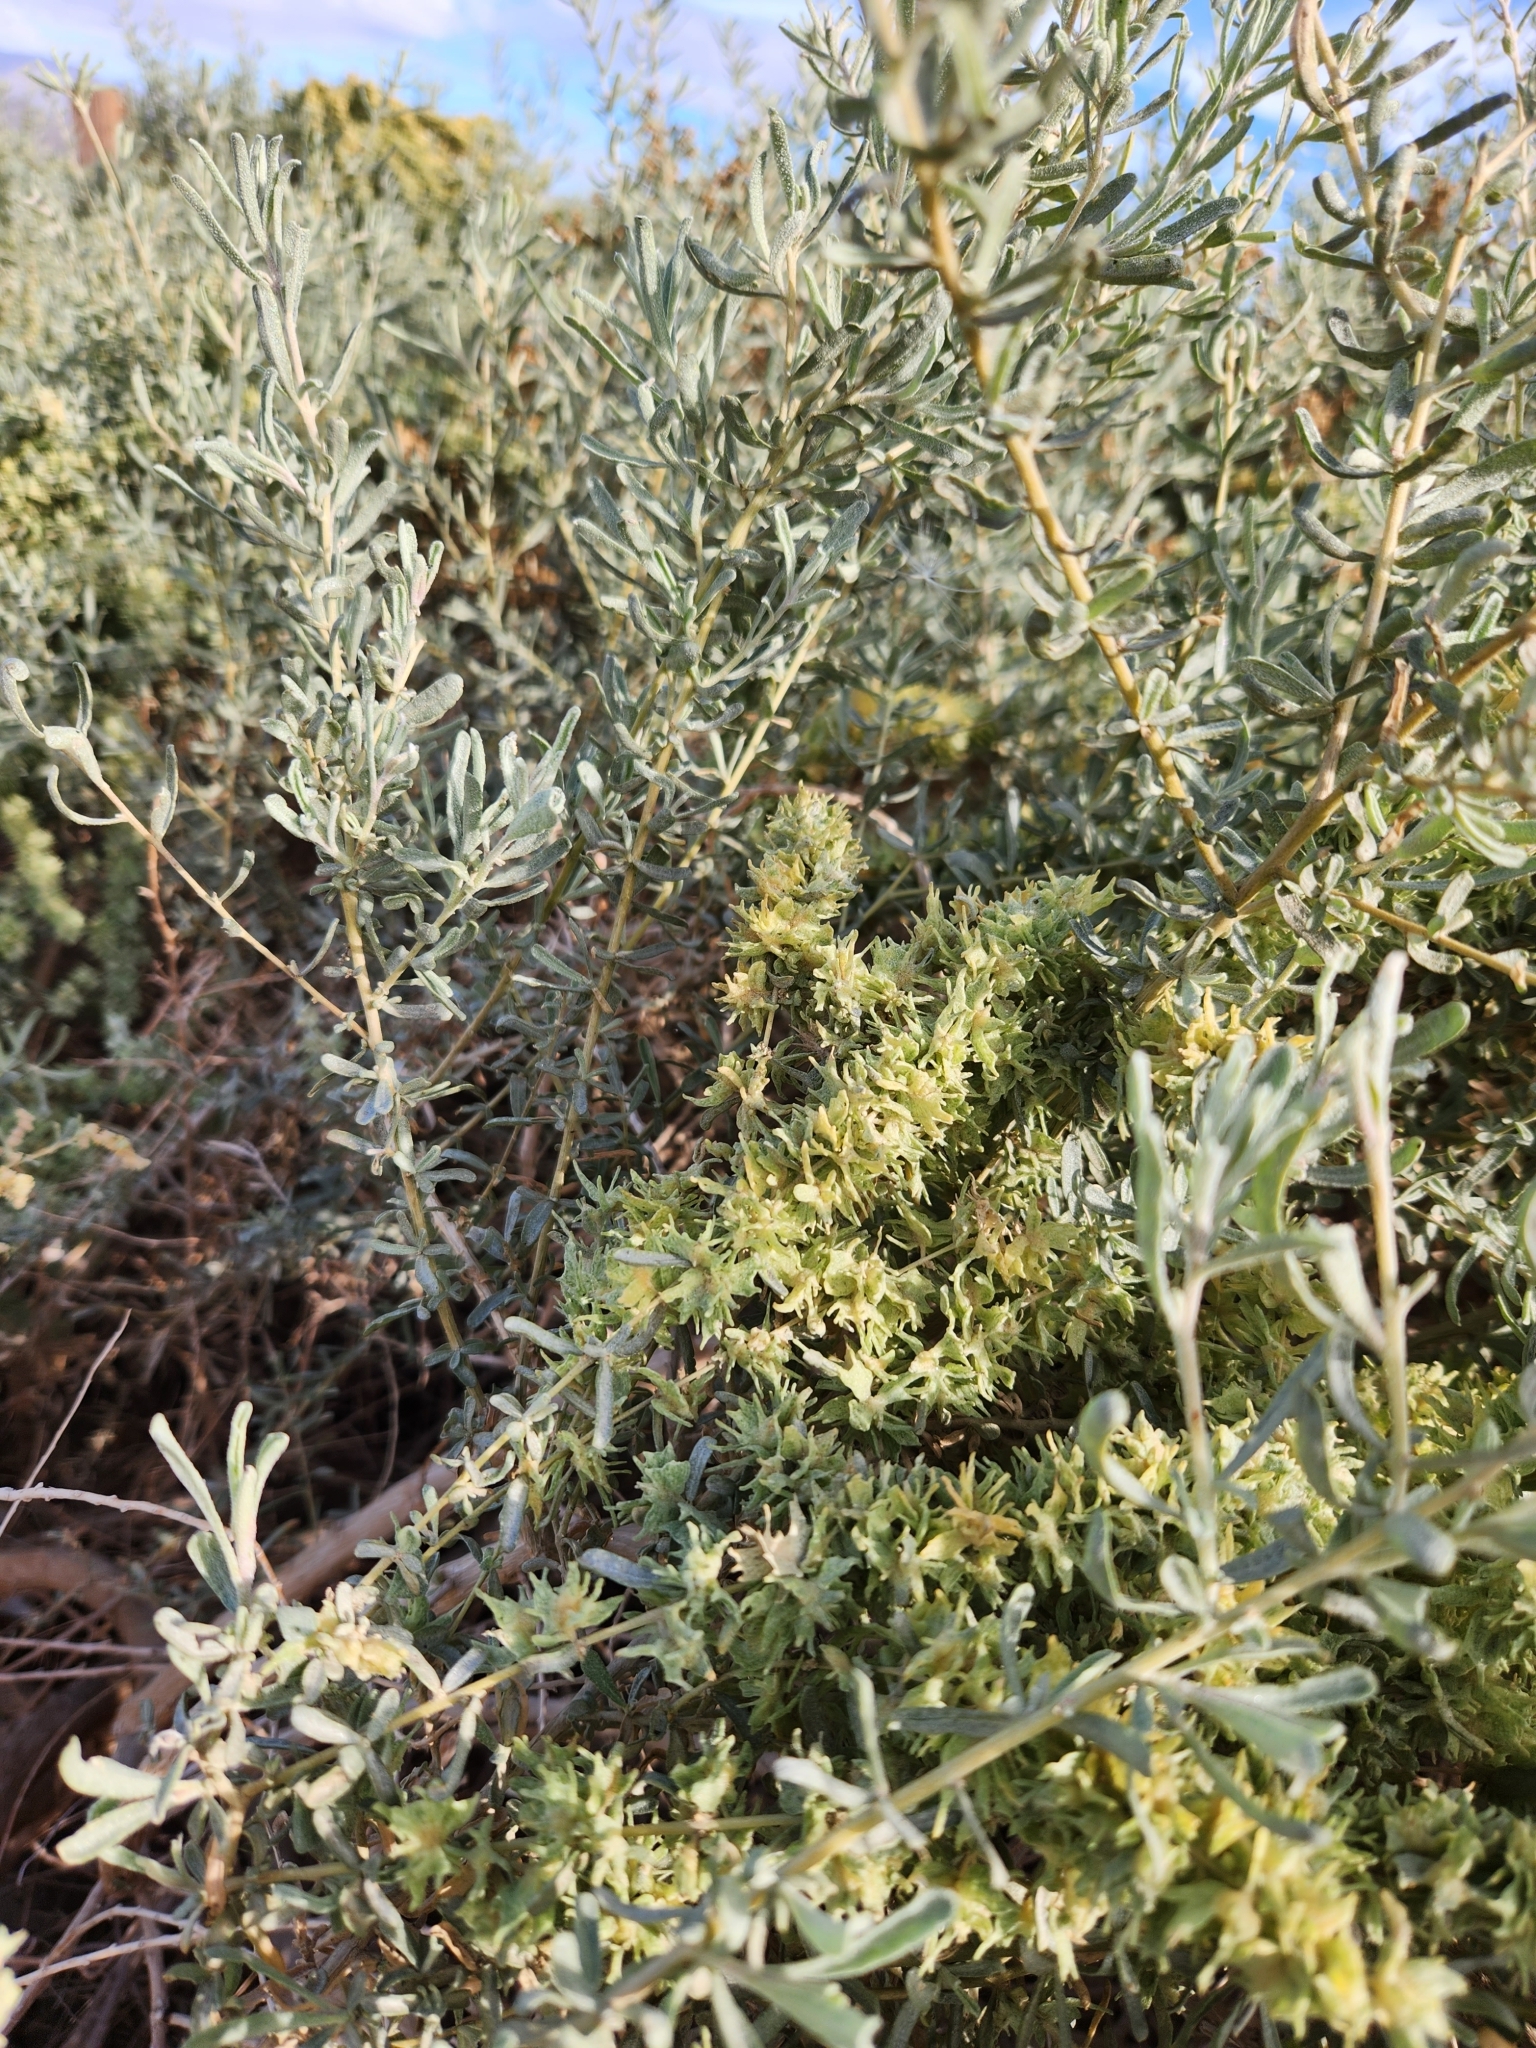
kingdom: Plantae
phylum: Tracheophyta
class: Magnoliopsida
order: Caryophyllales
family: Amaranthaceae
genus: Atriplex
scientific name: Atriplex canescens
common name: Four-wing saltbush
